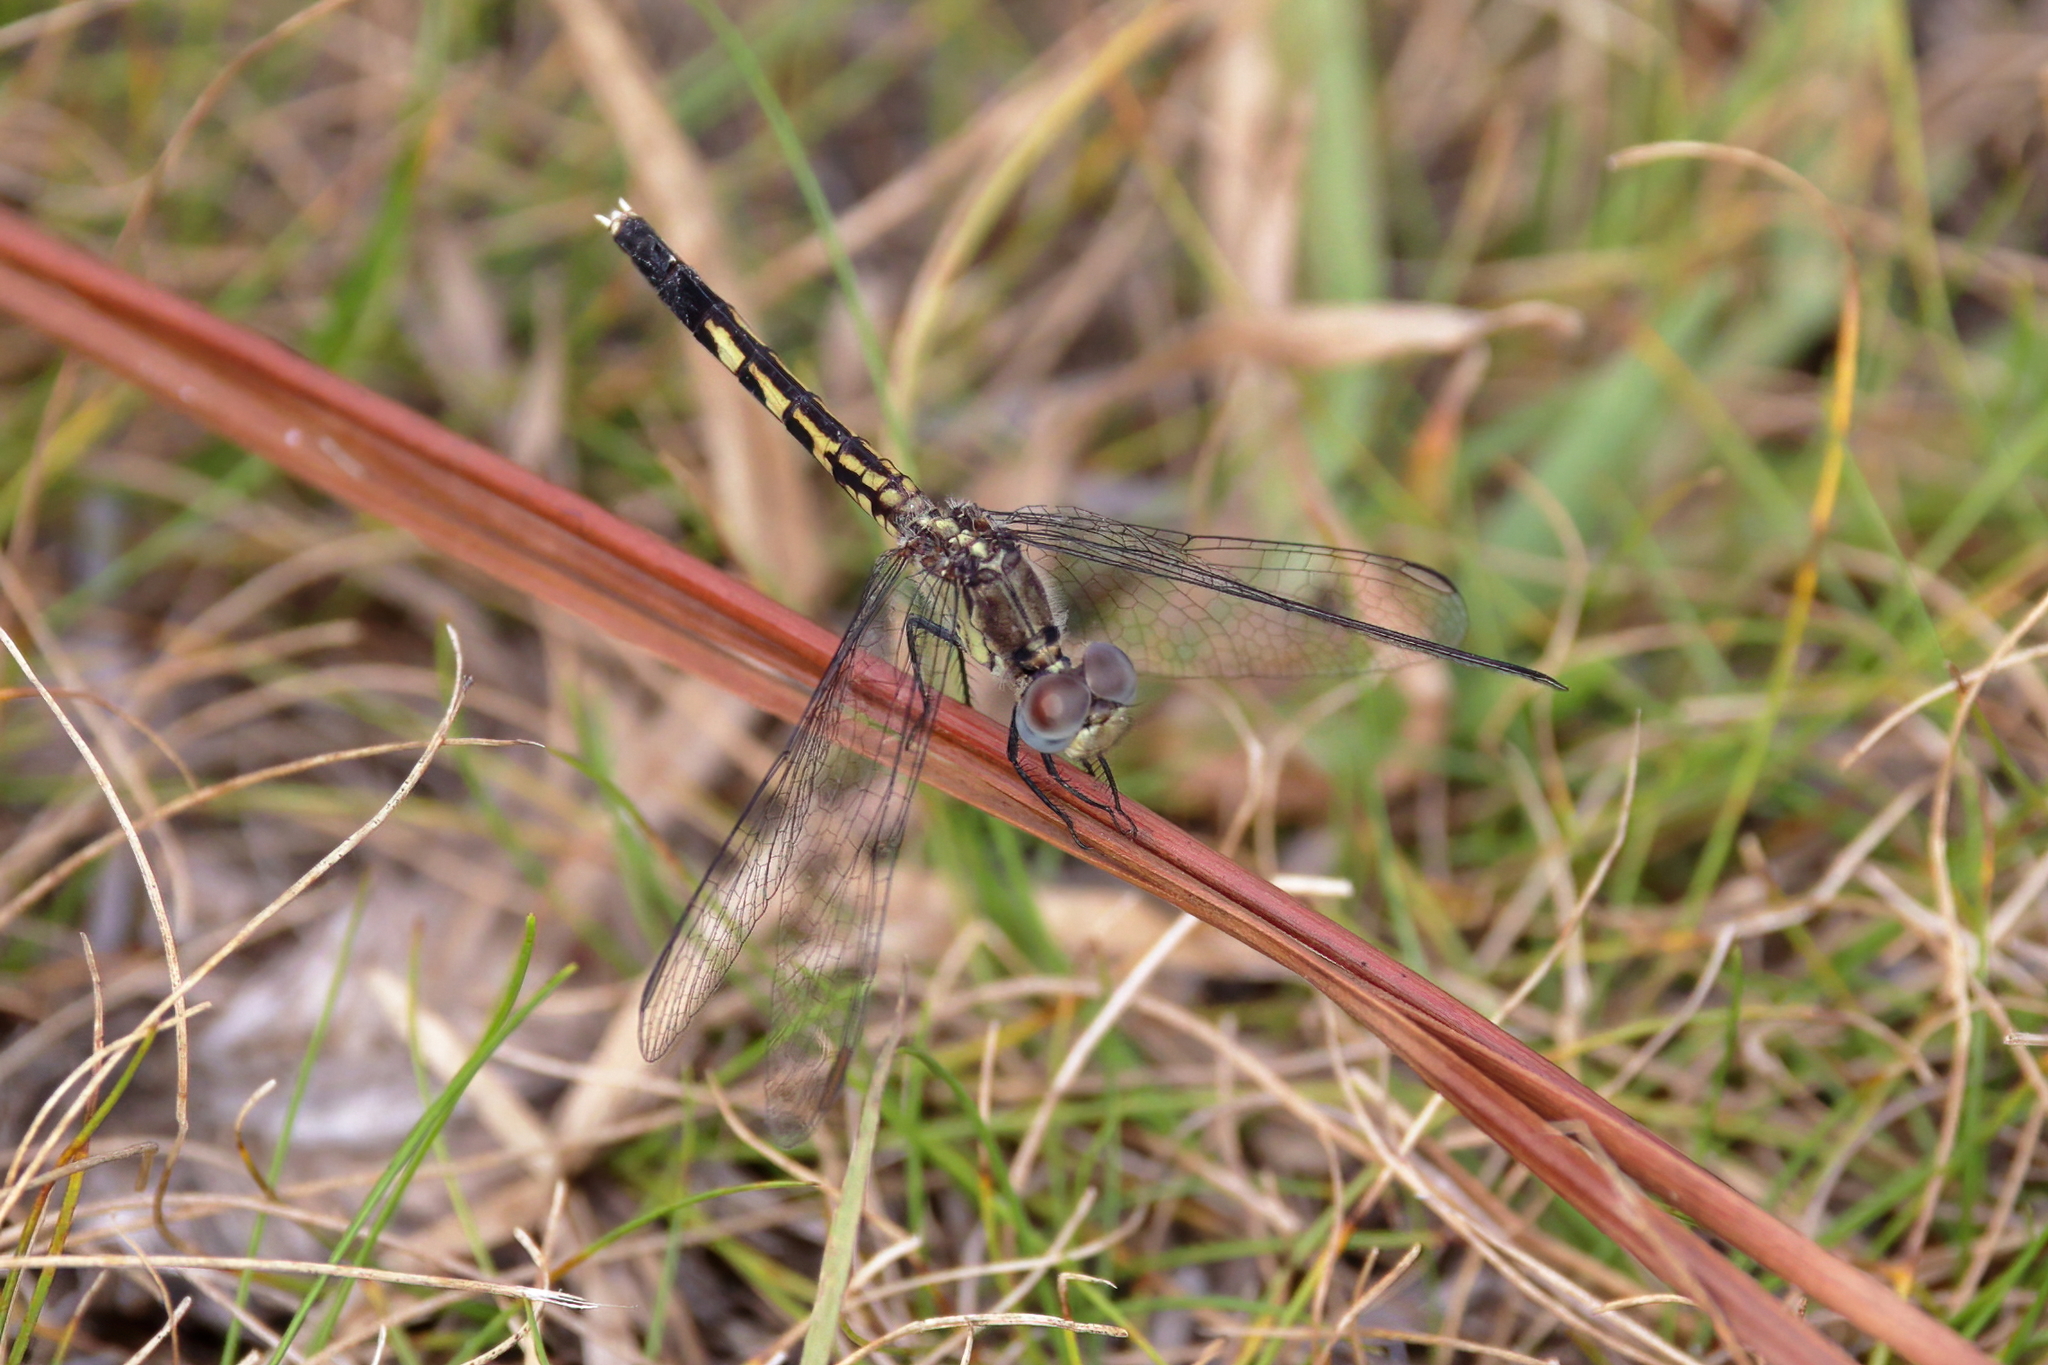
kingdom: Animalia
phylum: Arthropoda
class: Insecta
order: Odonata
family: Libellulidae
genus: Erythrodiplax
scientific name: Erythrodiplax minuscula
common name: Little blue dragonlet
